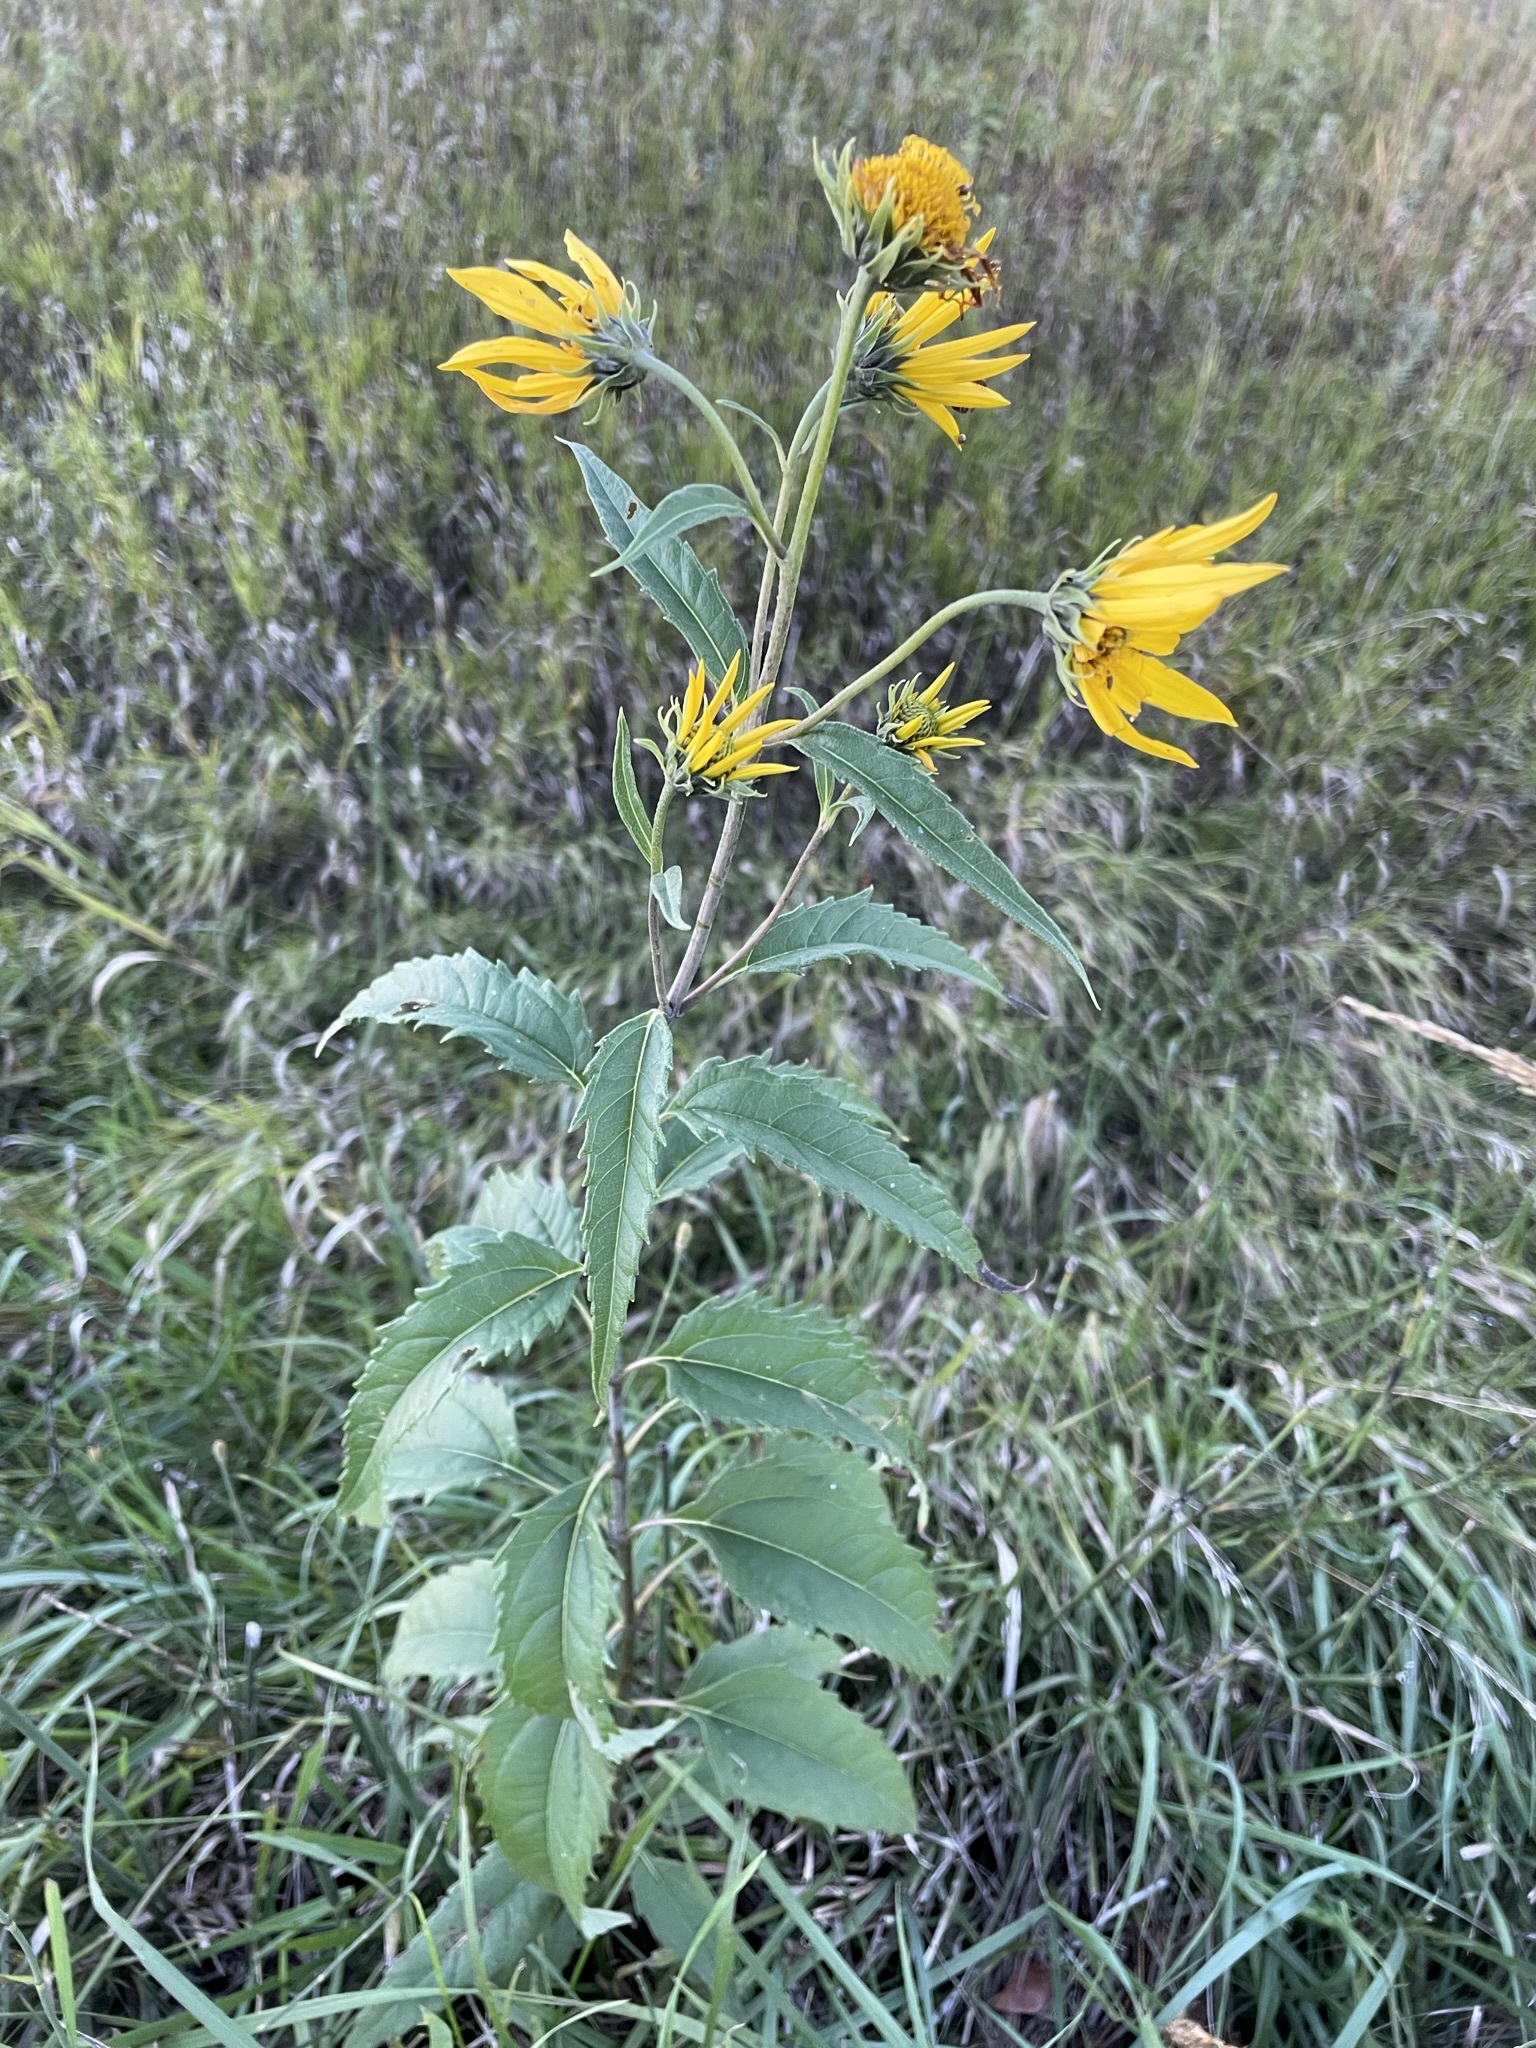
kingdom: Plantae
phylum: Tracheophyta
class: Magnoliopsida
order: Asterales
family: Asteraceae
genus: Helianthus
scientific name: Helianthus grosseserratus
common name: Sawtooth sunflower
